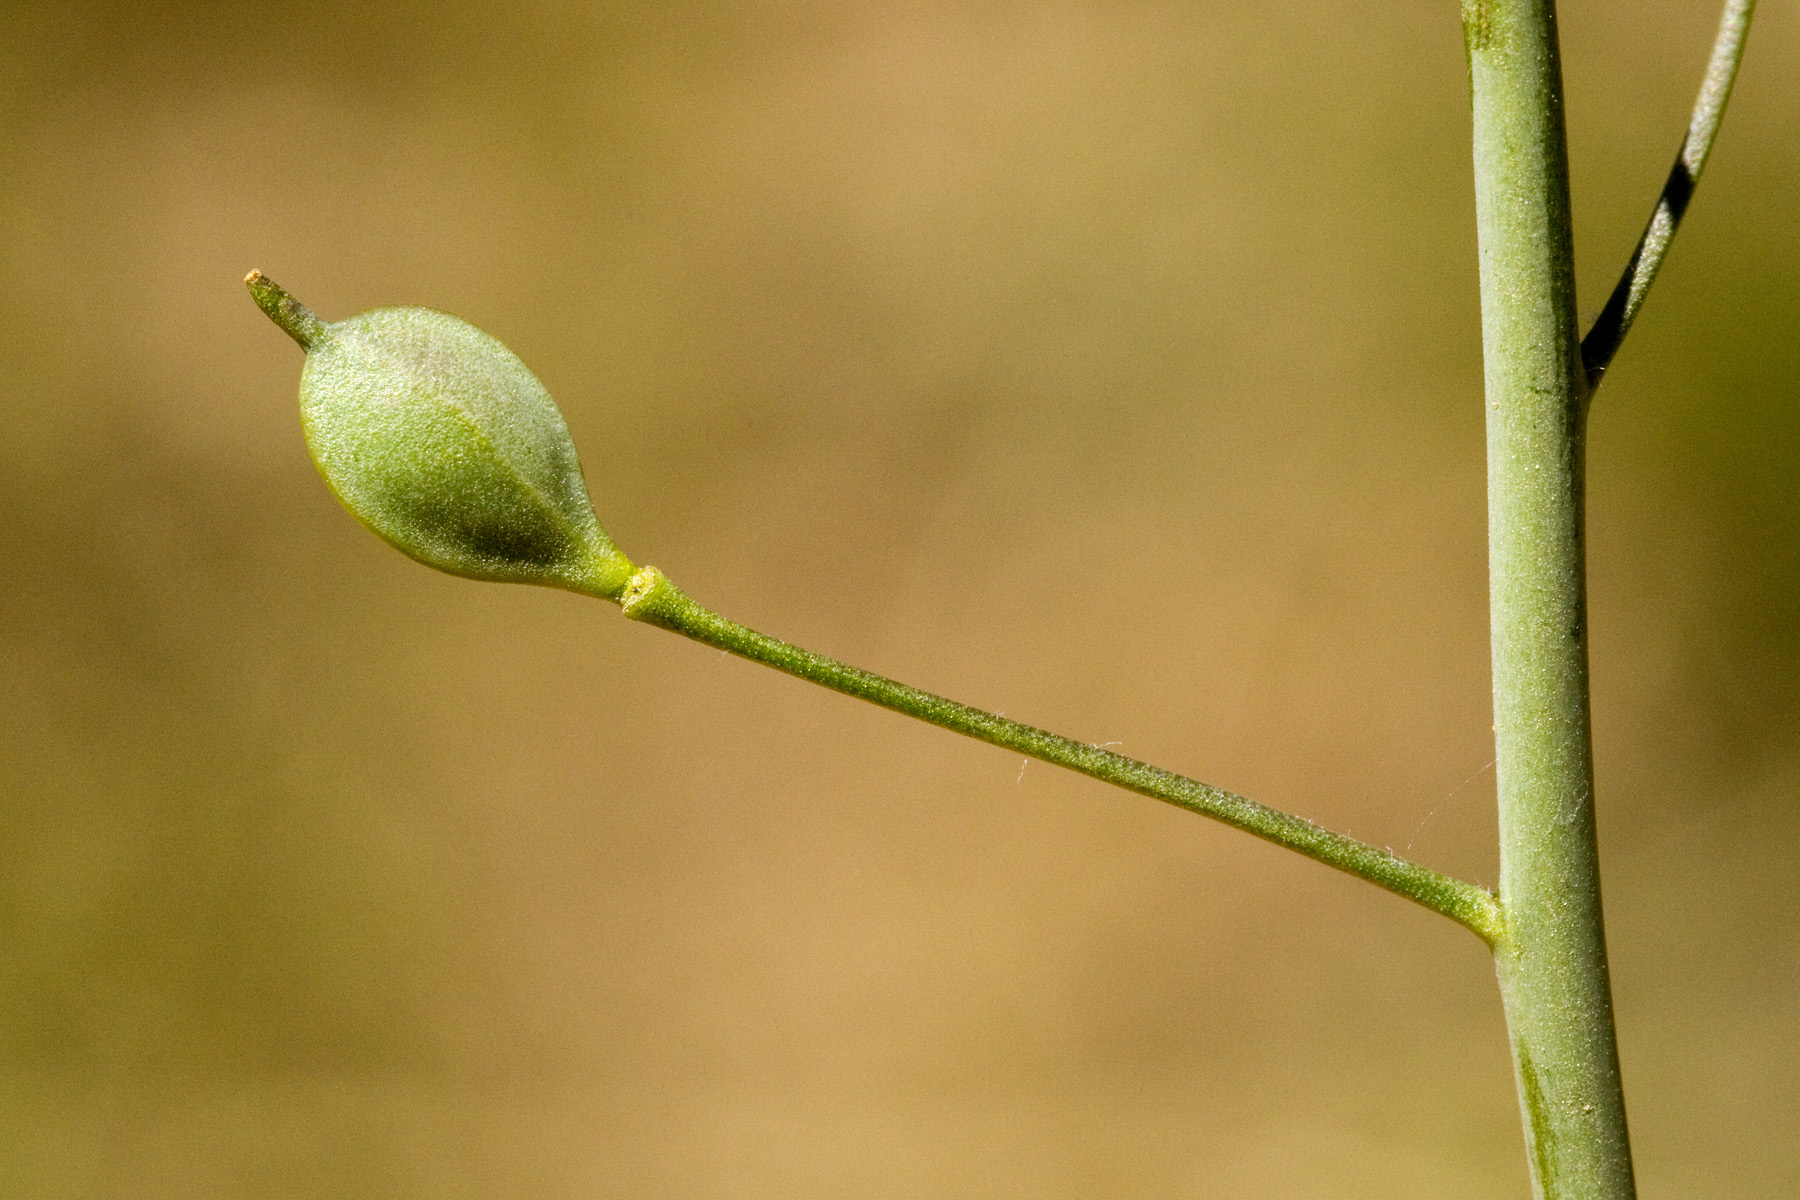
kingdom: Plantae
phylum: Tracheophyta
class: Magnoliopsida
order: Brassicales
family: Brassicaceae
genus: Camelina
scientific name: Camelina microcarpa
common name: Lesser gold-of-pleasure
